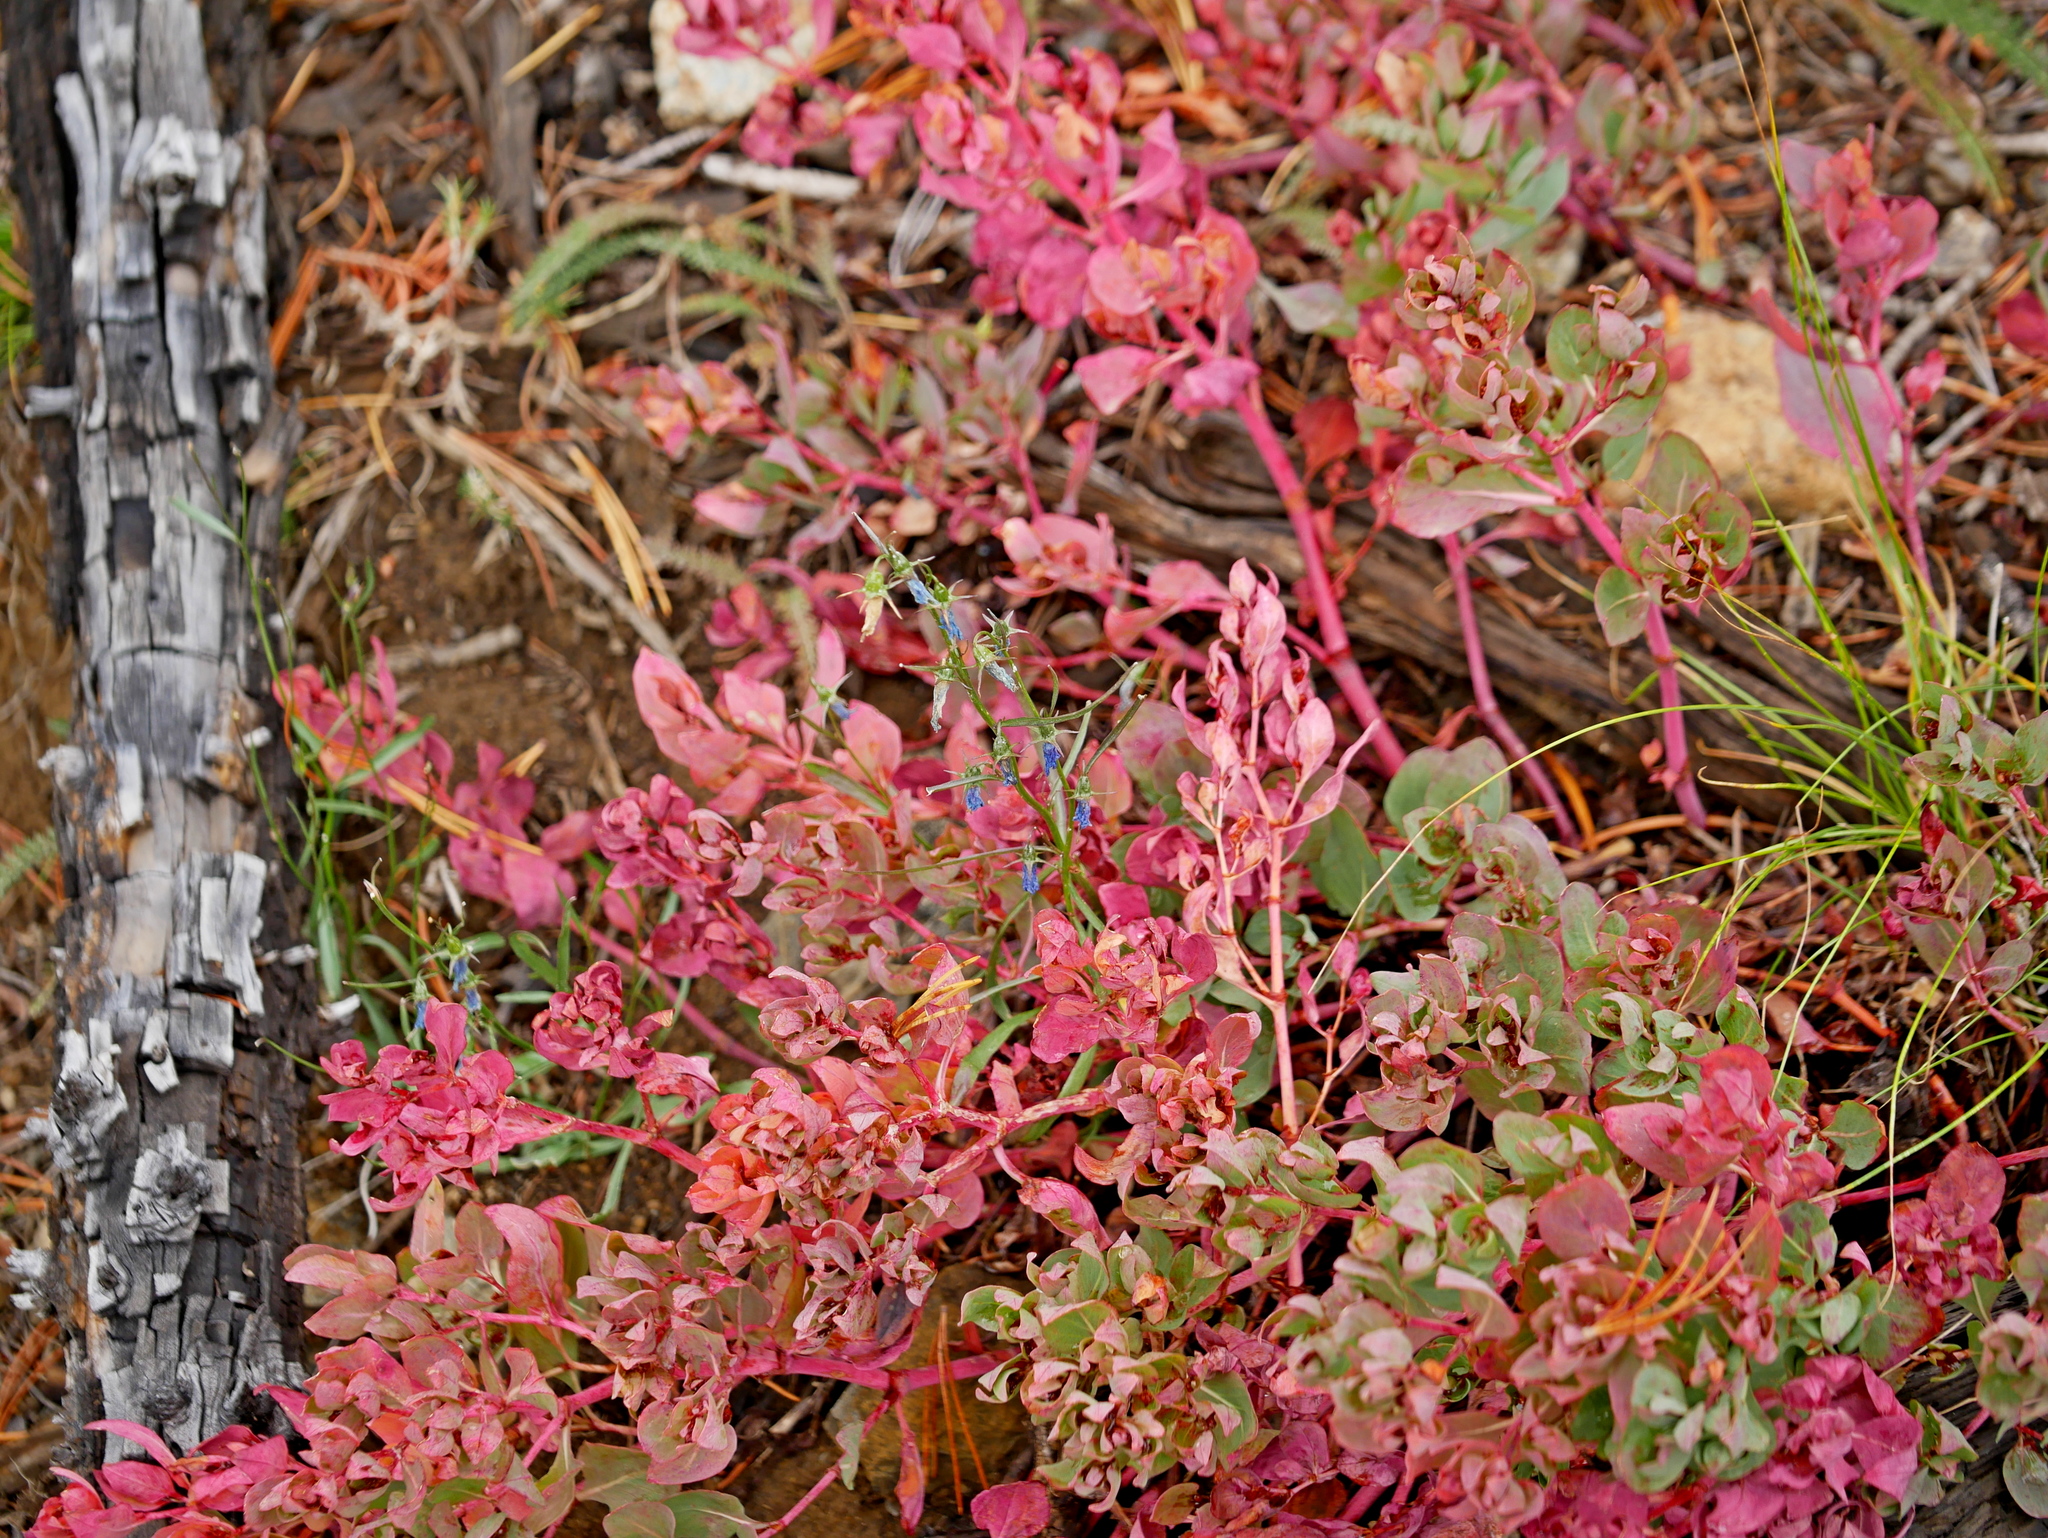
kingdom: Plantae
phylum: Tracheophyta
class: Magnoliopsida
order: Caryophyllales
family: Polygonaceae
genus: Koenigia
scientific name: Koenigia davisiae
